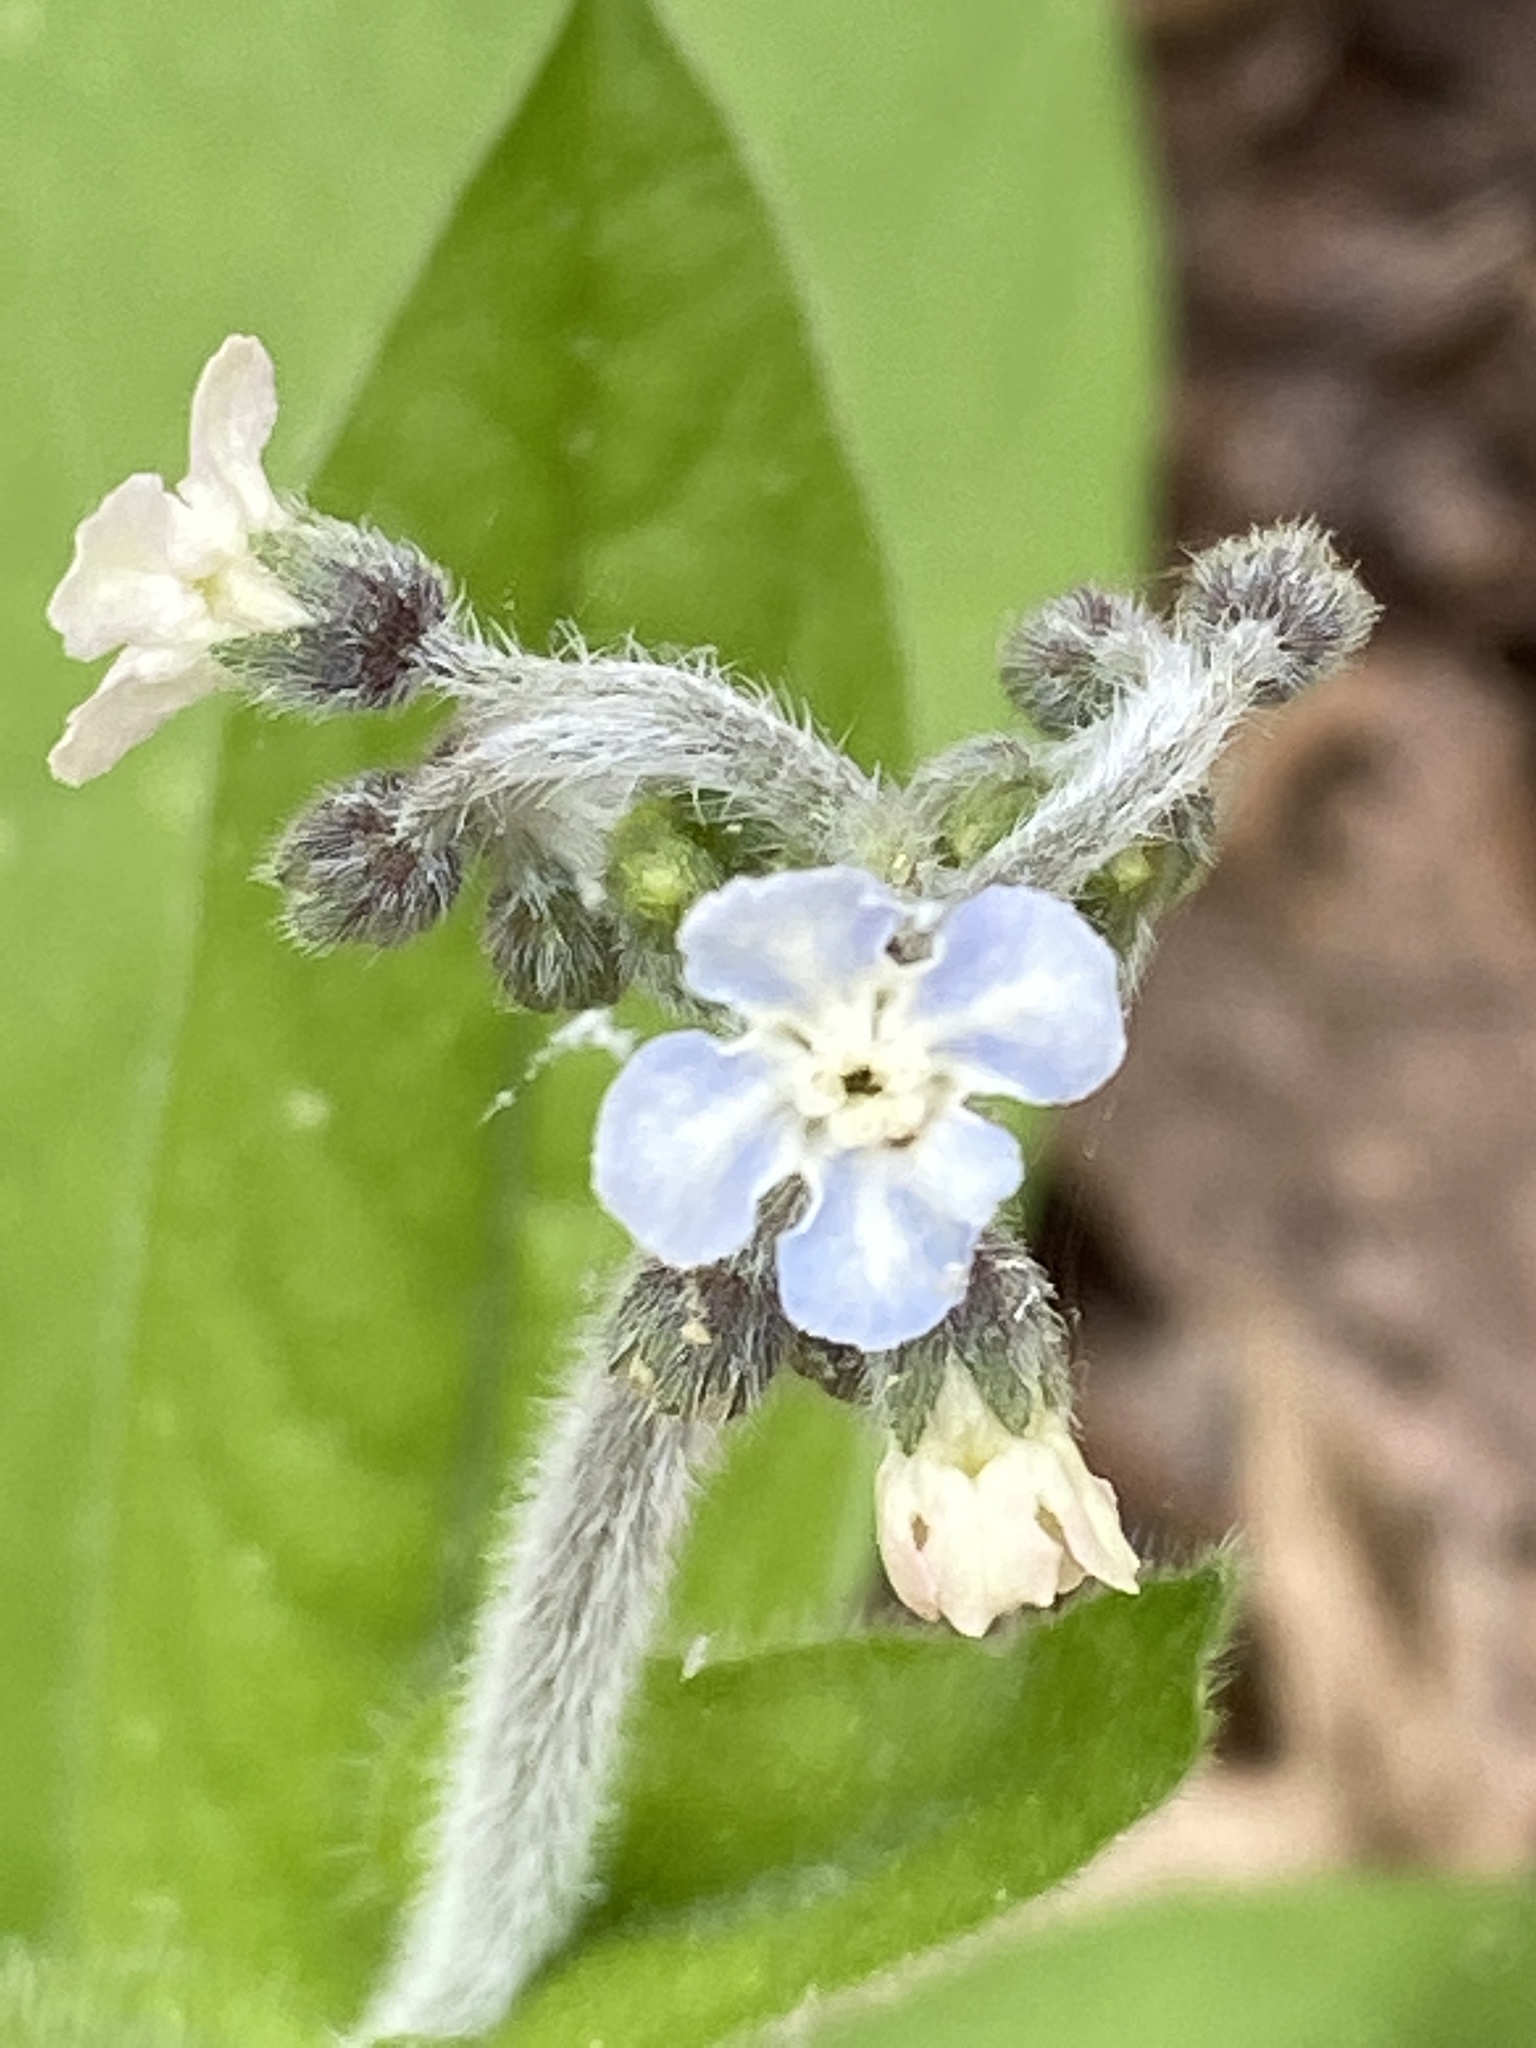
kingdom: Plantae
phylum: Tracheophyta
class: Magnoliopsida
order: Boraginales
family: Boraginaceae
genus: Andersonglossum
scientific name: Andersonglossum virginianum
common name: Wild comfrey
